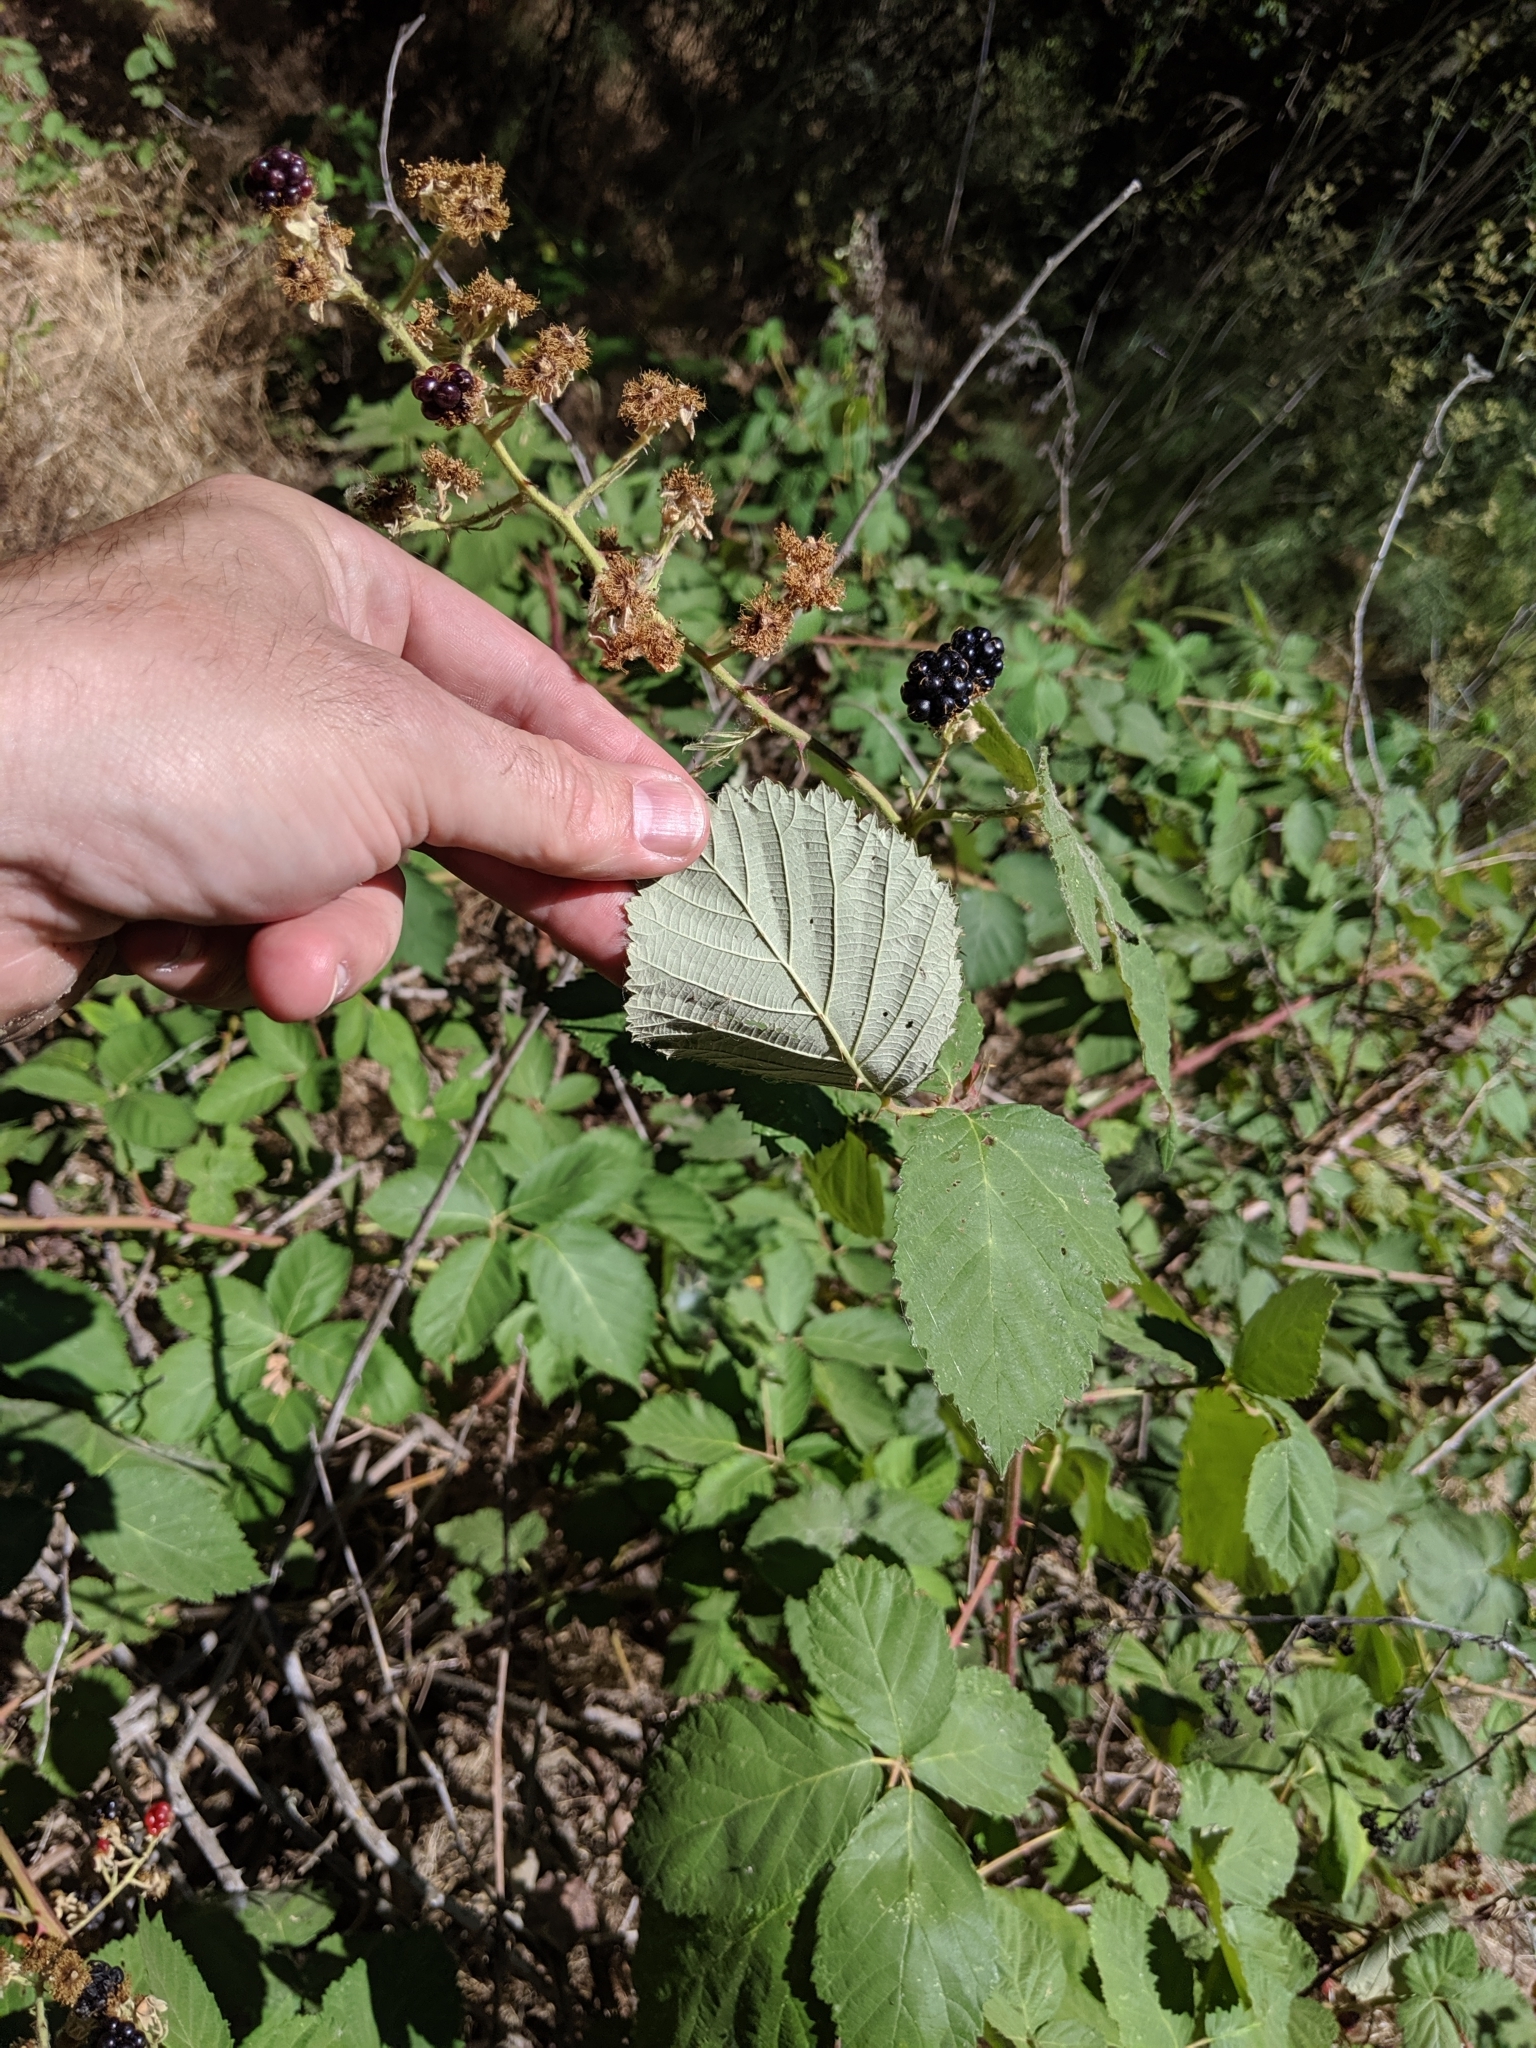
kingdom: Plantae
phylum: Tracheophyta
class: Magnoliopsida
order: Rosales
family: Rosaceae
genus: Rubus
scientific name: Rubus armeniacus
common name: Himalayan blackberry
